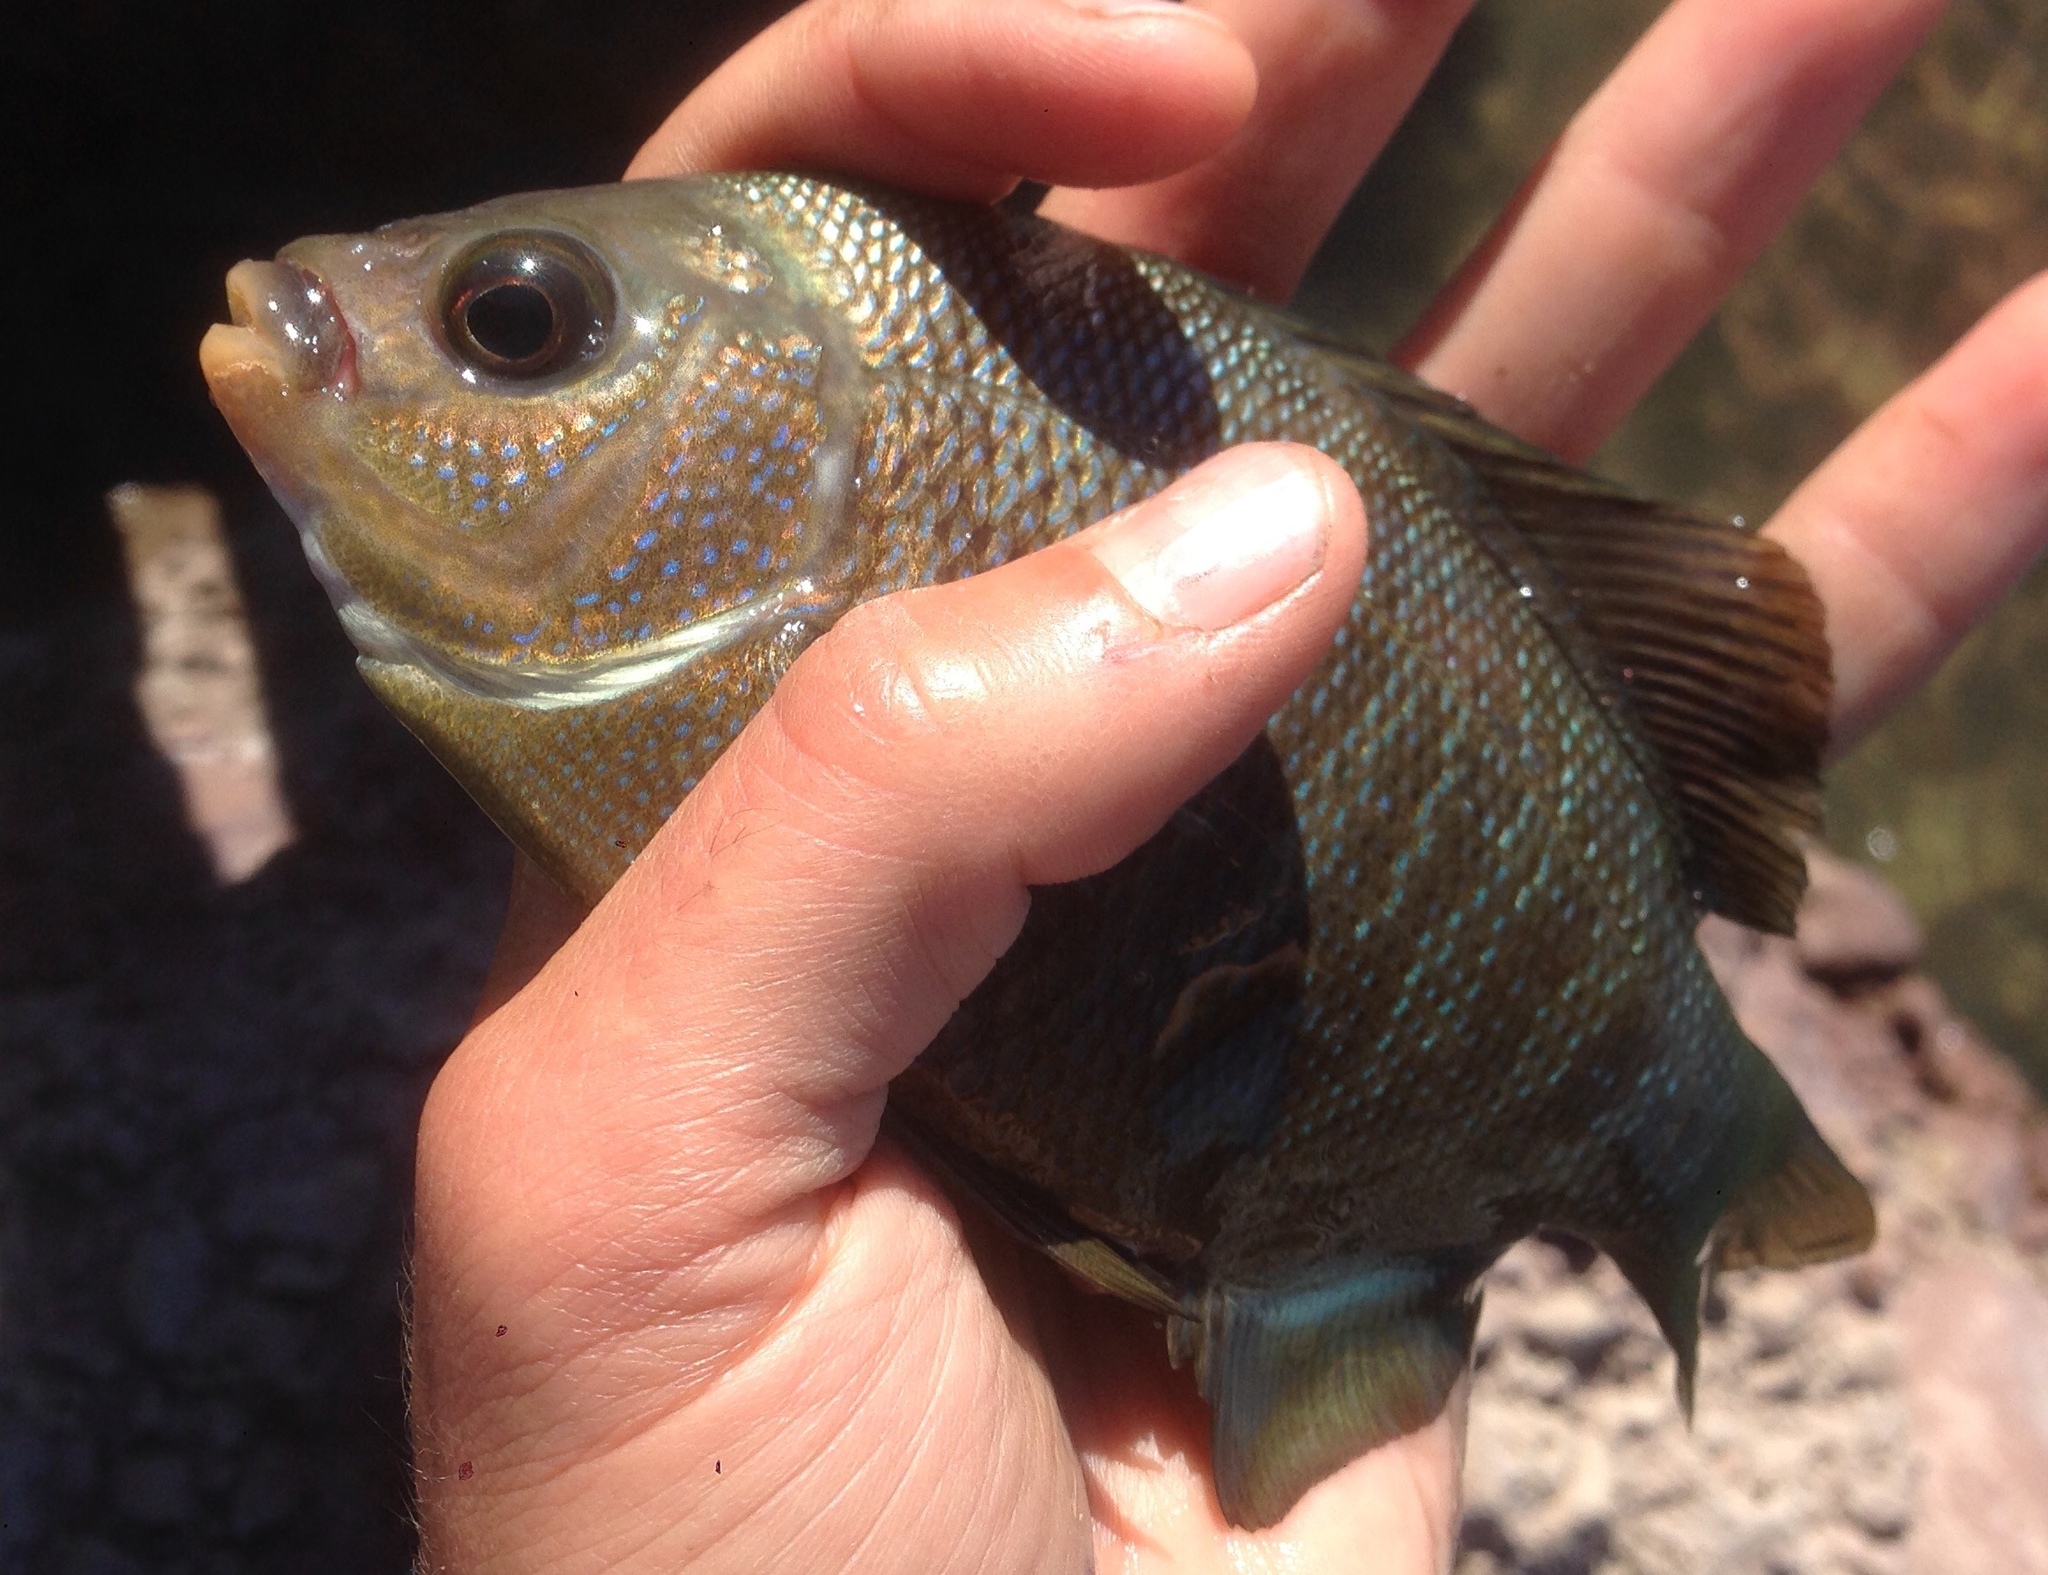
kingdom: Animalia
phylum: Chordata
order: Perciformes
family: Embiotocidae
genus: Embiotoca
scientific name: Embiotoca jacksoni
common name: Black perch
